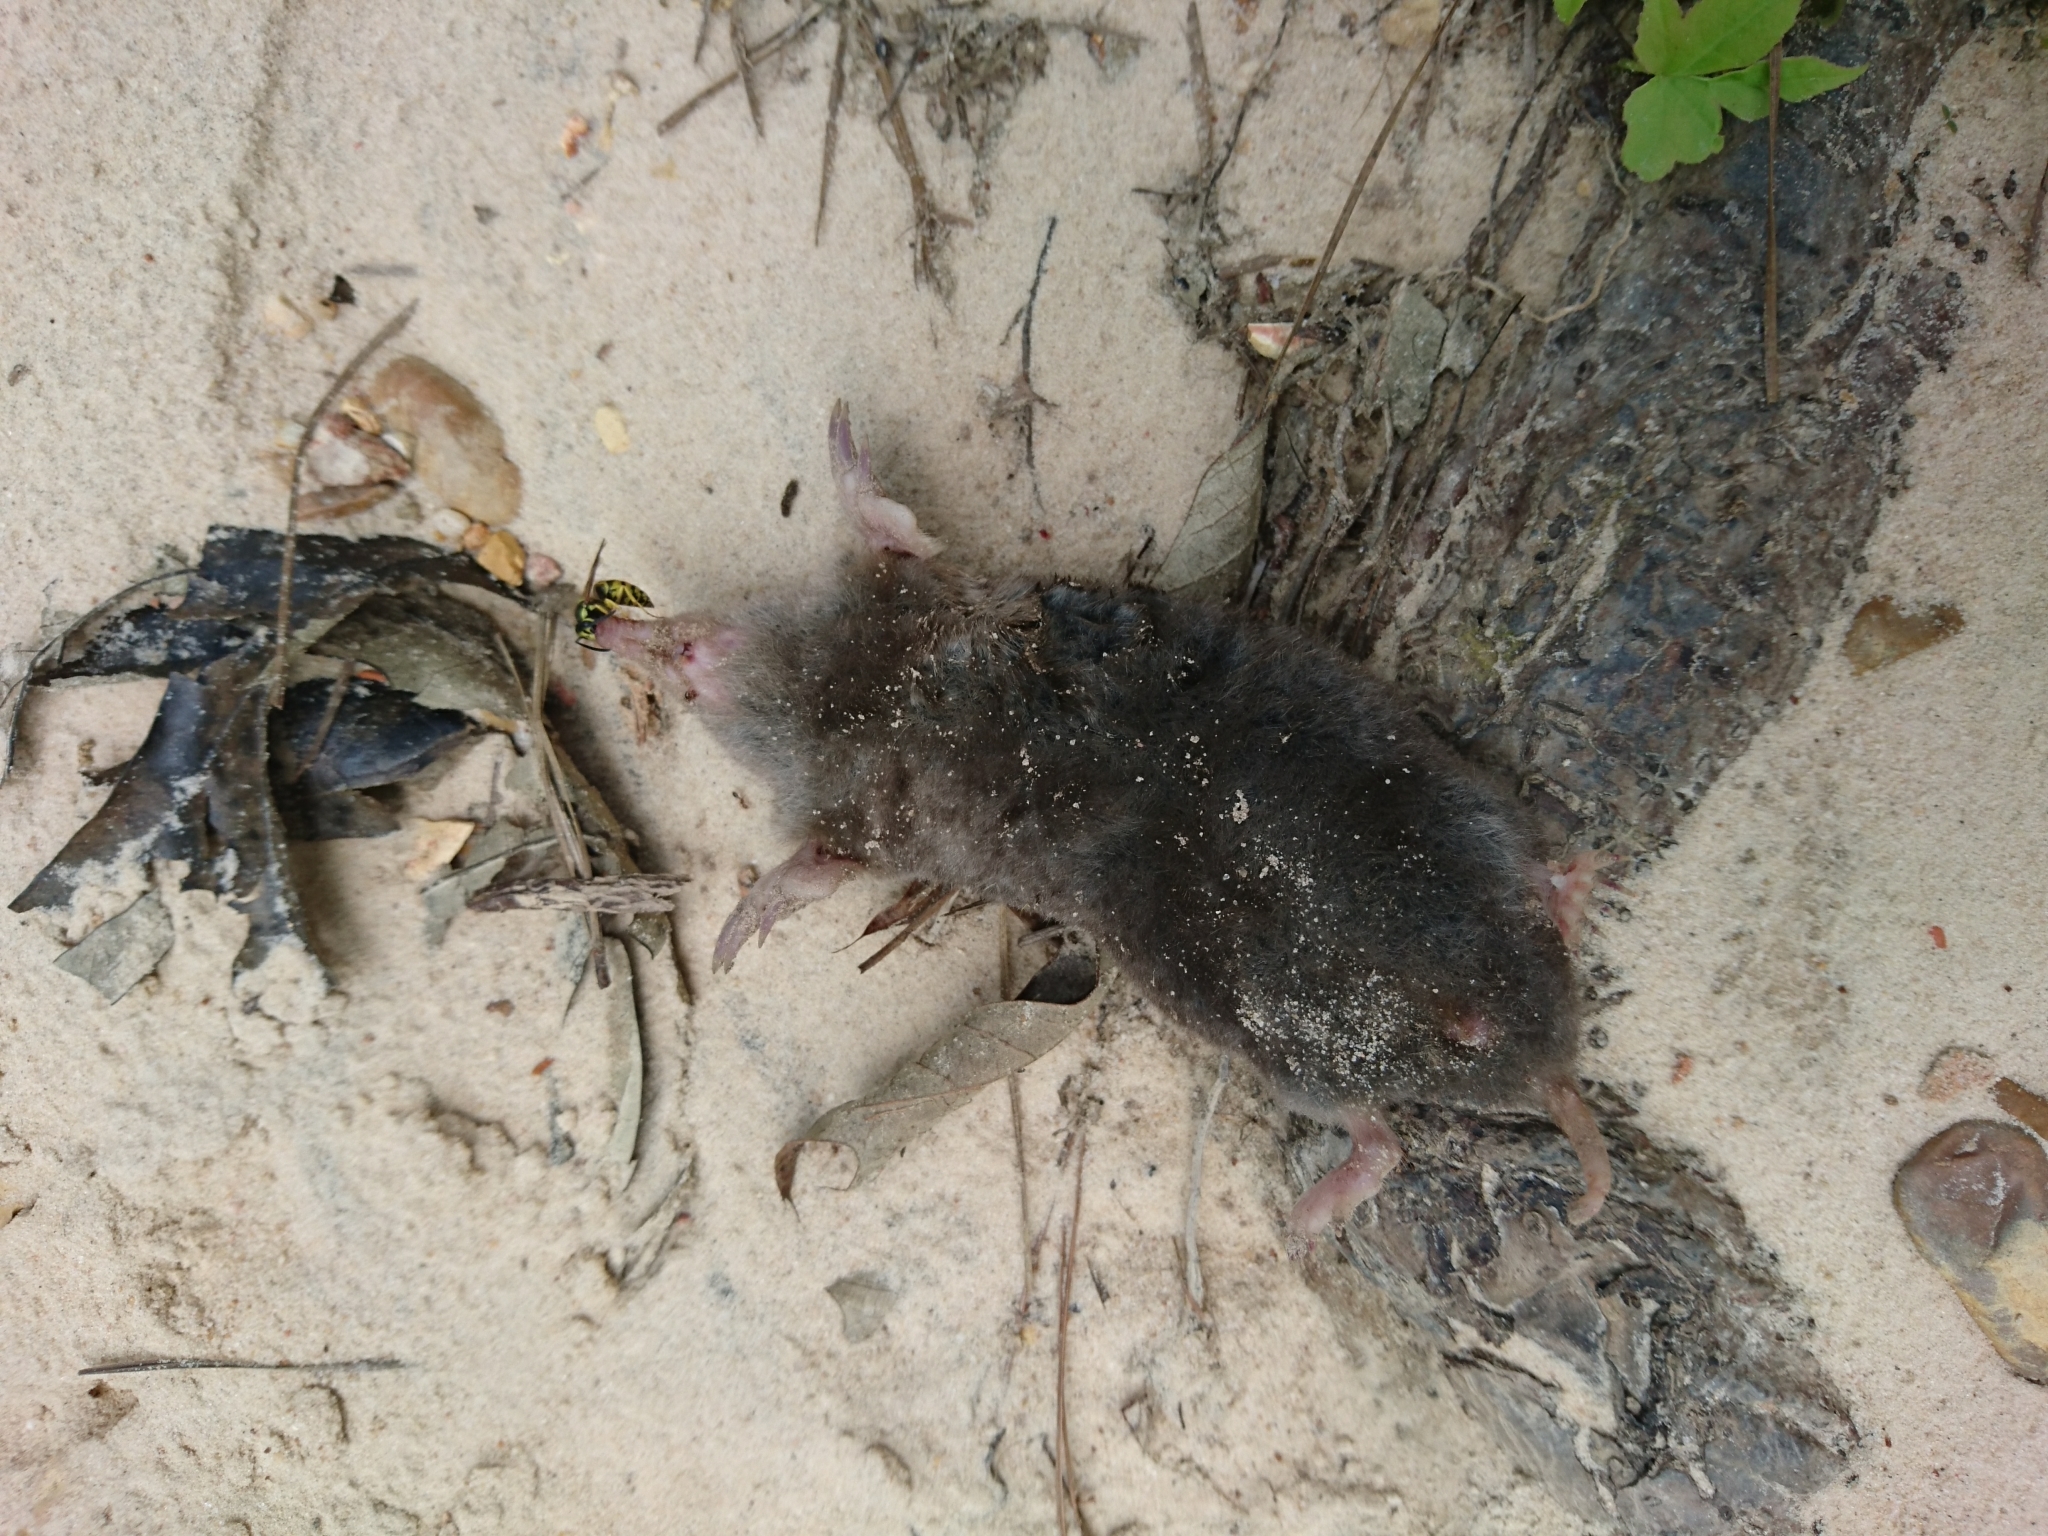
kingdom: Animalia
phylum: Chordata
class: Mammalia
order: Soricomorpha
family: Talpidae
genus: Scalopus
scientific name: Scalopus aquaticus
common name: Eastern mole
